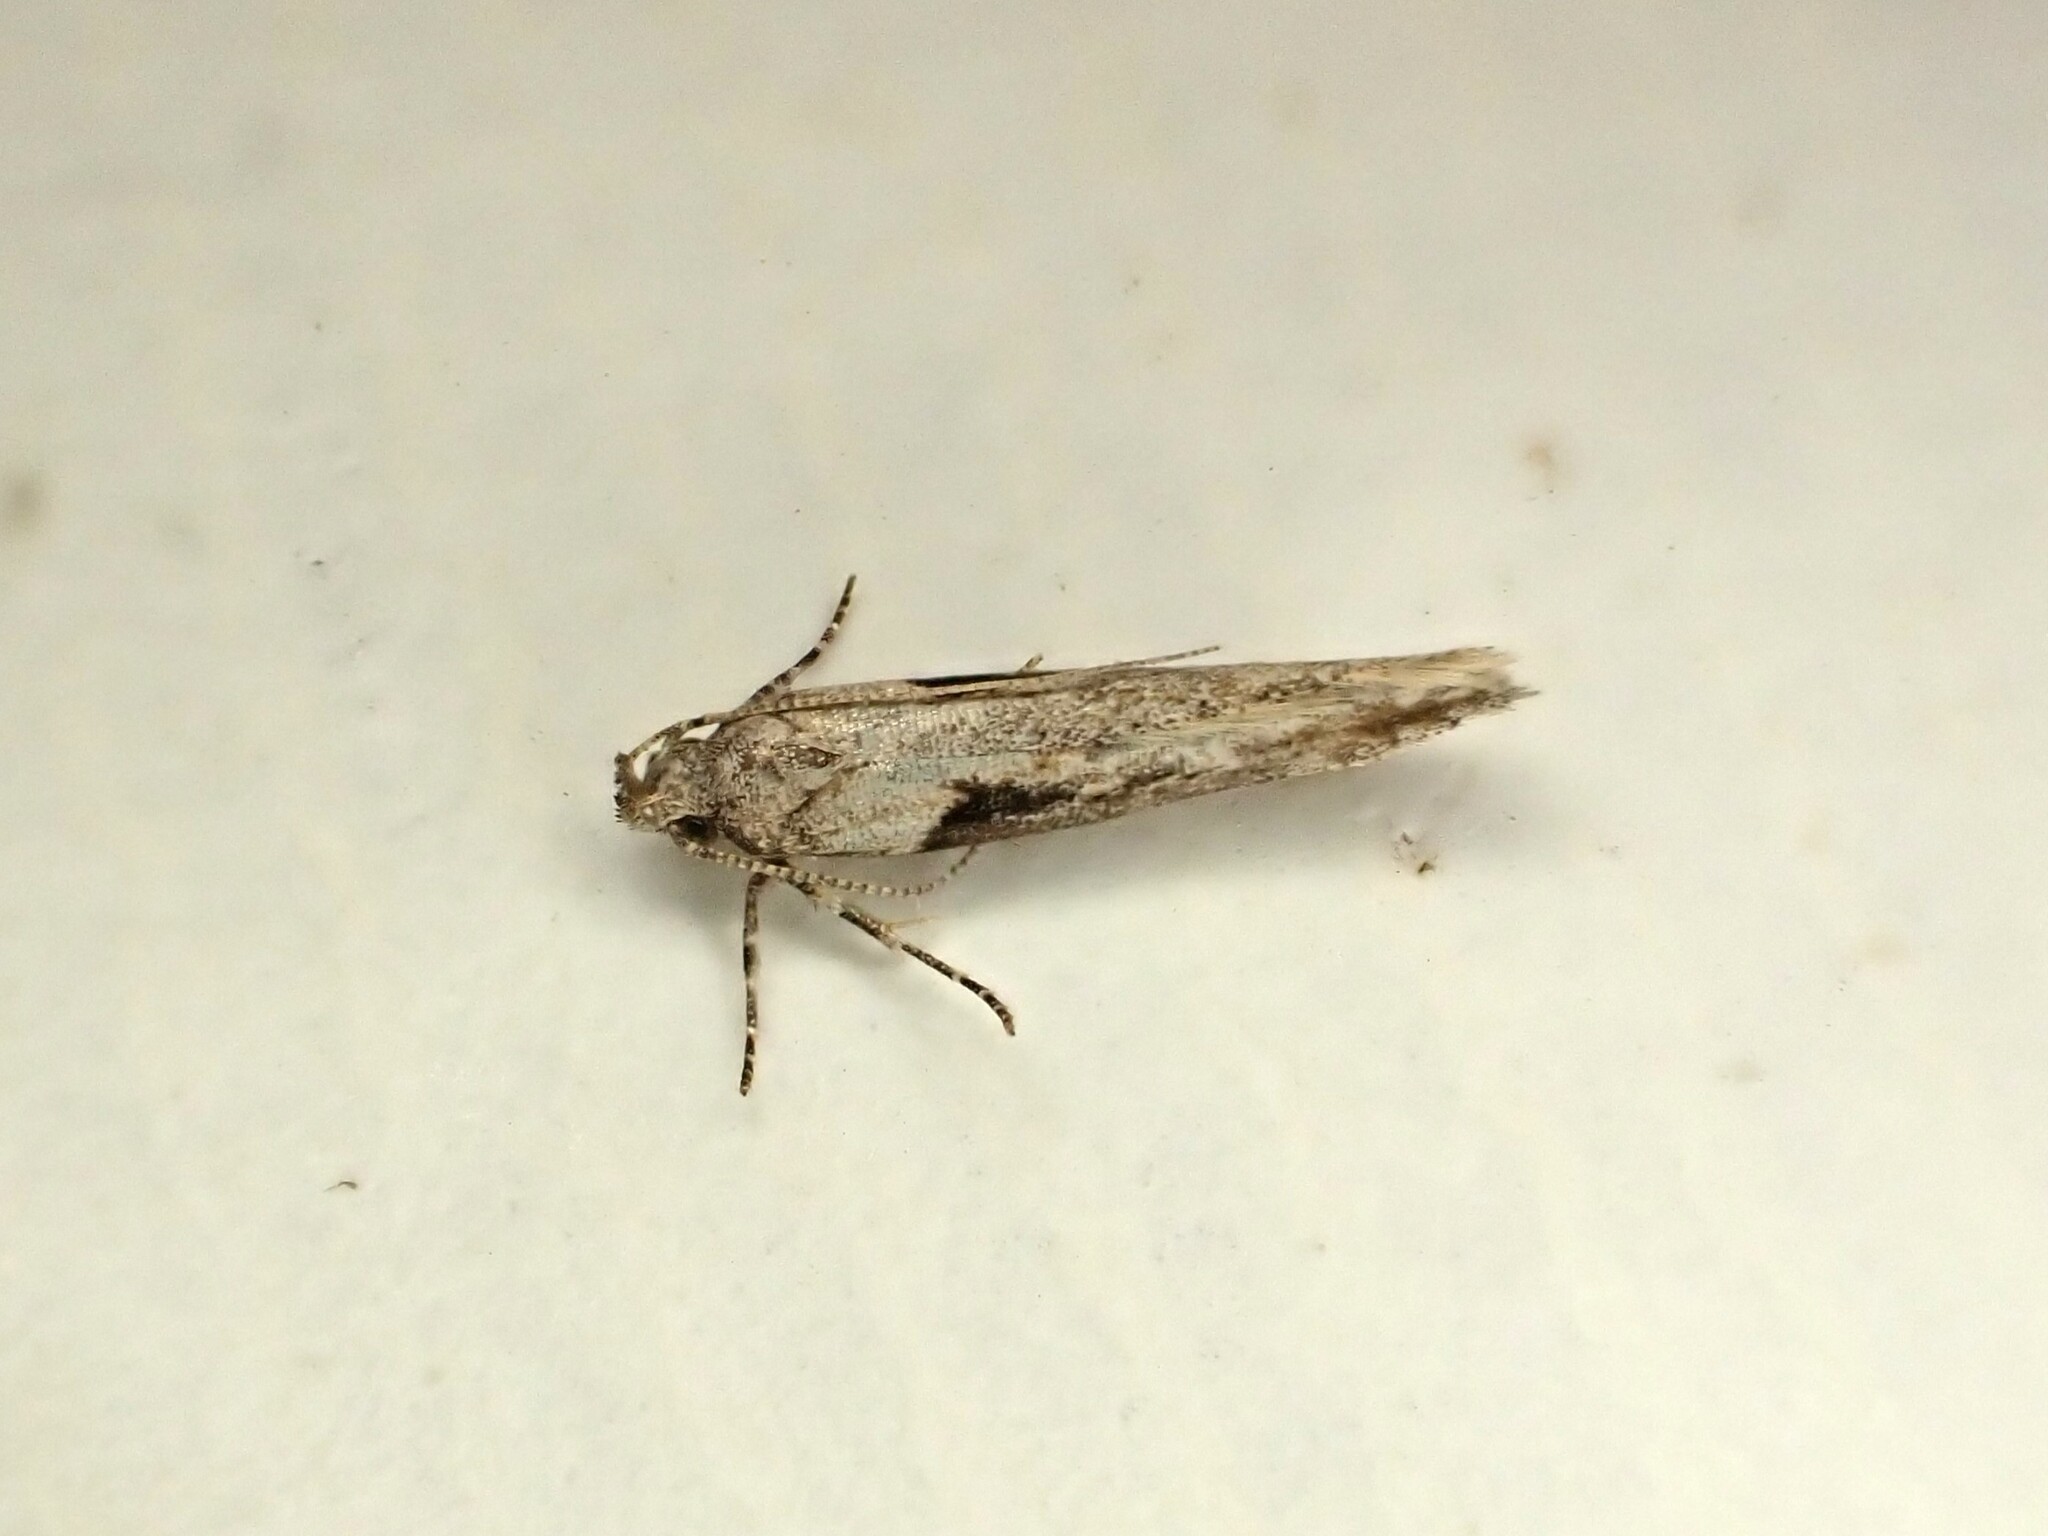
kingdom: Animalia
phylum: Arthropoda
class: Insecta
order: Lepidoptera
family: Gelechiidae
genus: Symmetrischema
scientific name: Symmetrischema tangolias
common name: Moth
